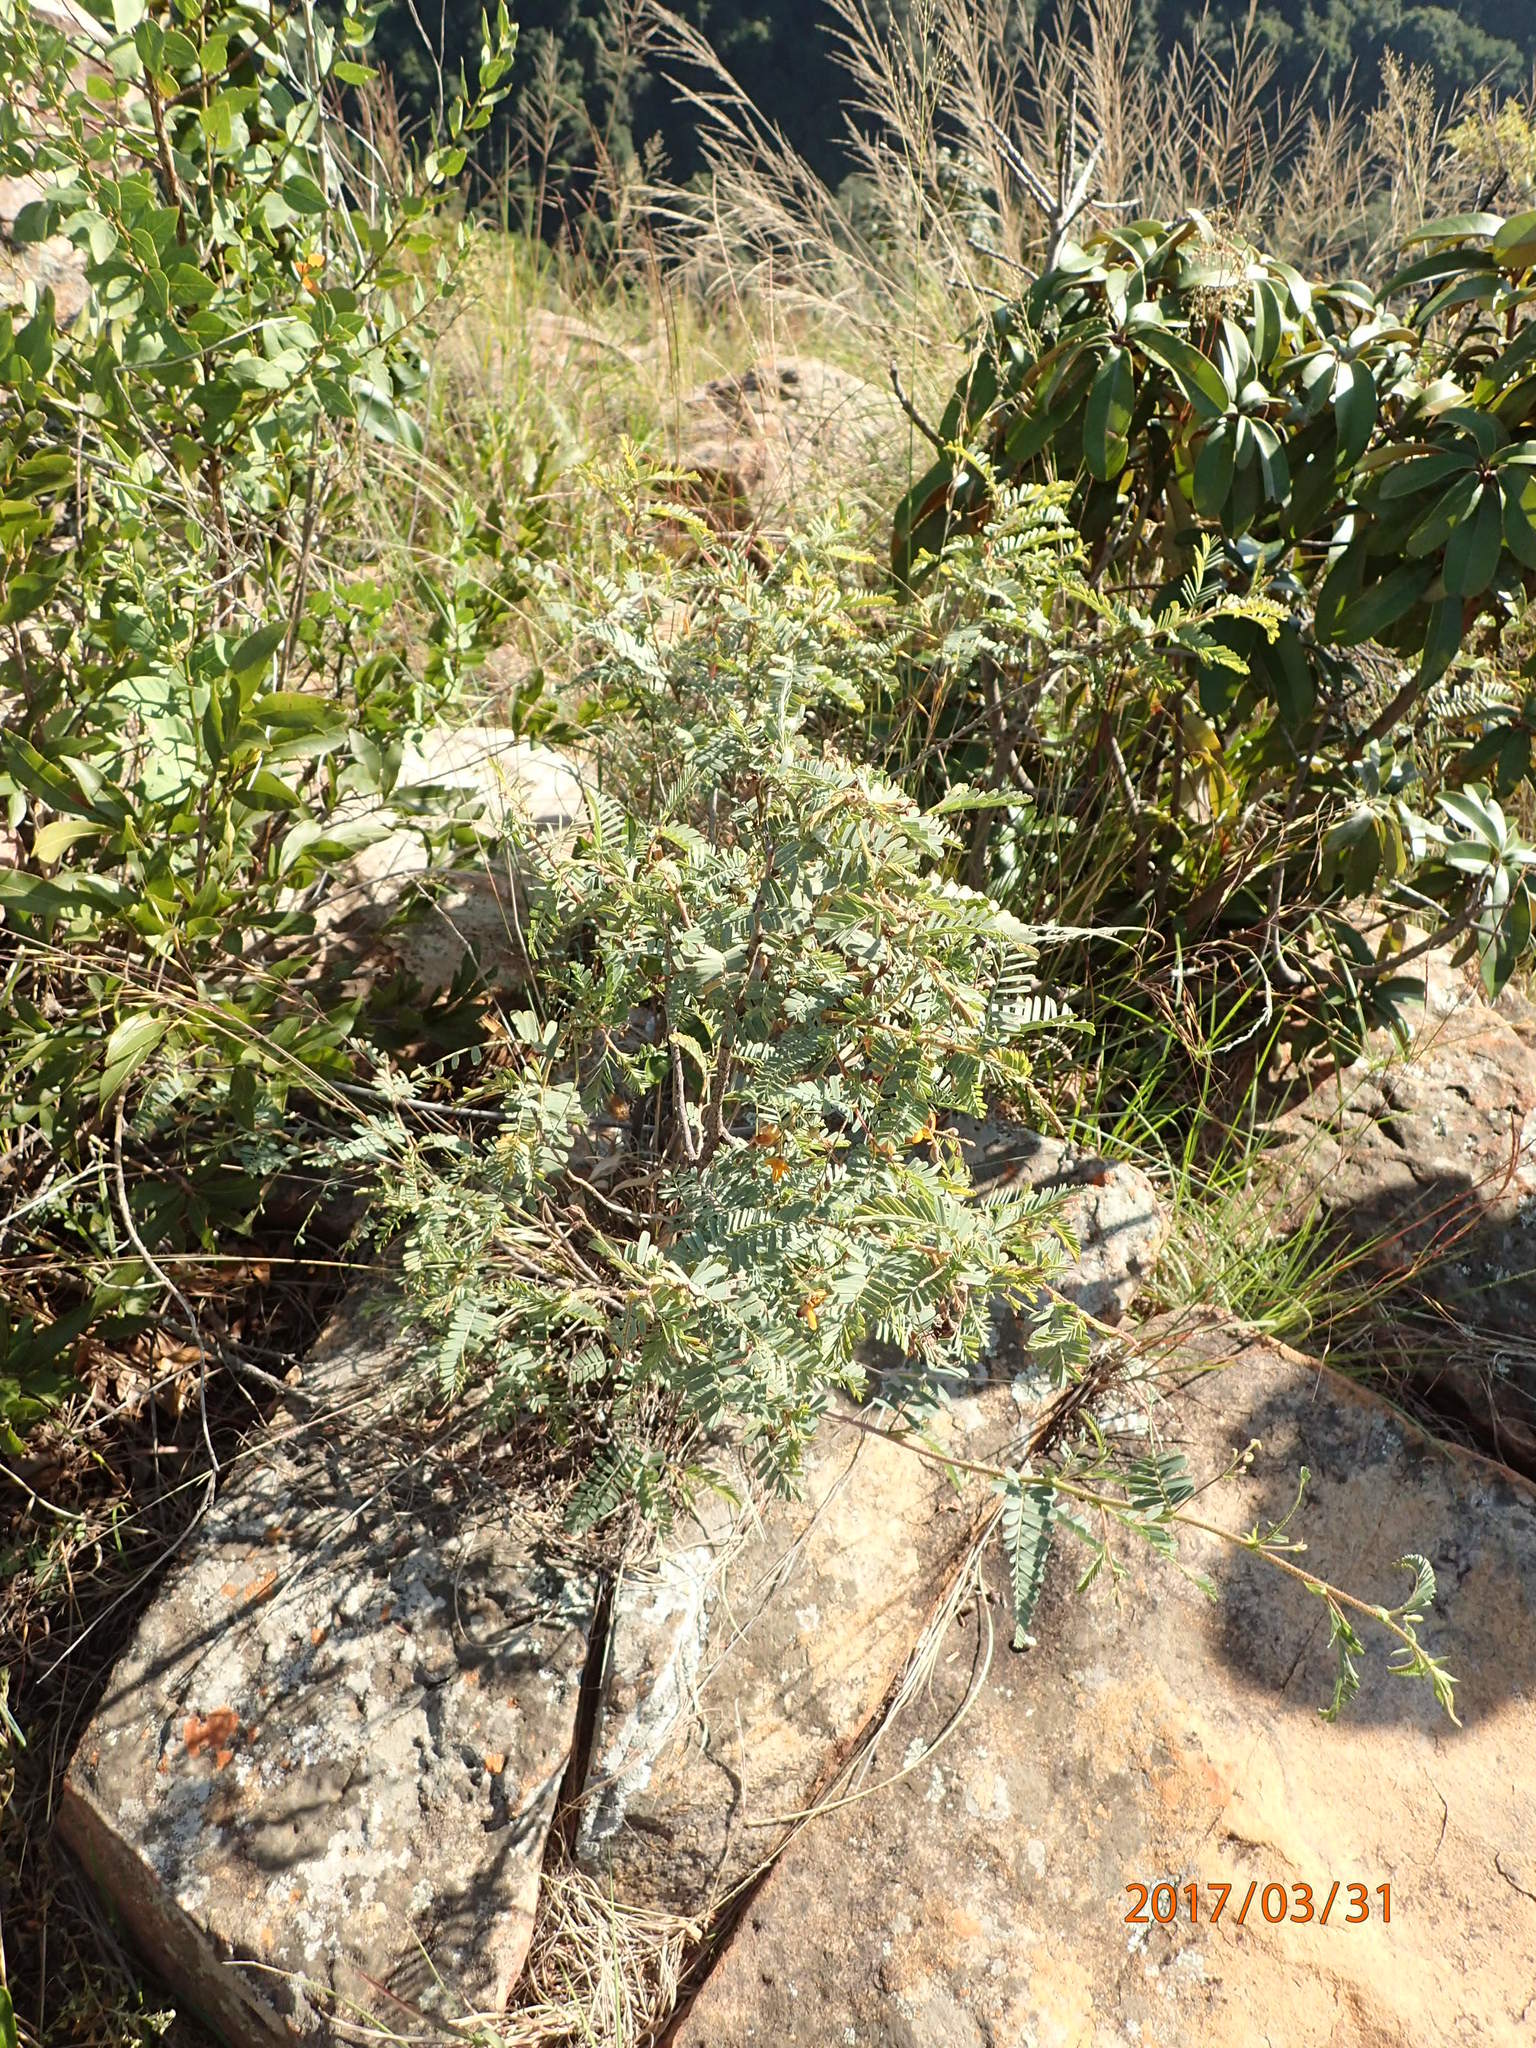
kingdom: Plantae
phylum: Tracheophyta
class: Magnoliopsida
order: Fabales
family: Fabaceae
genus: Aeschynomene
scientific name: Aeschynomene rehmannii
